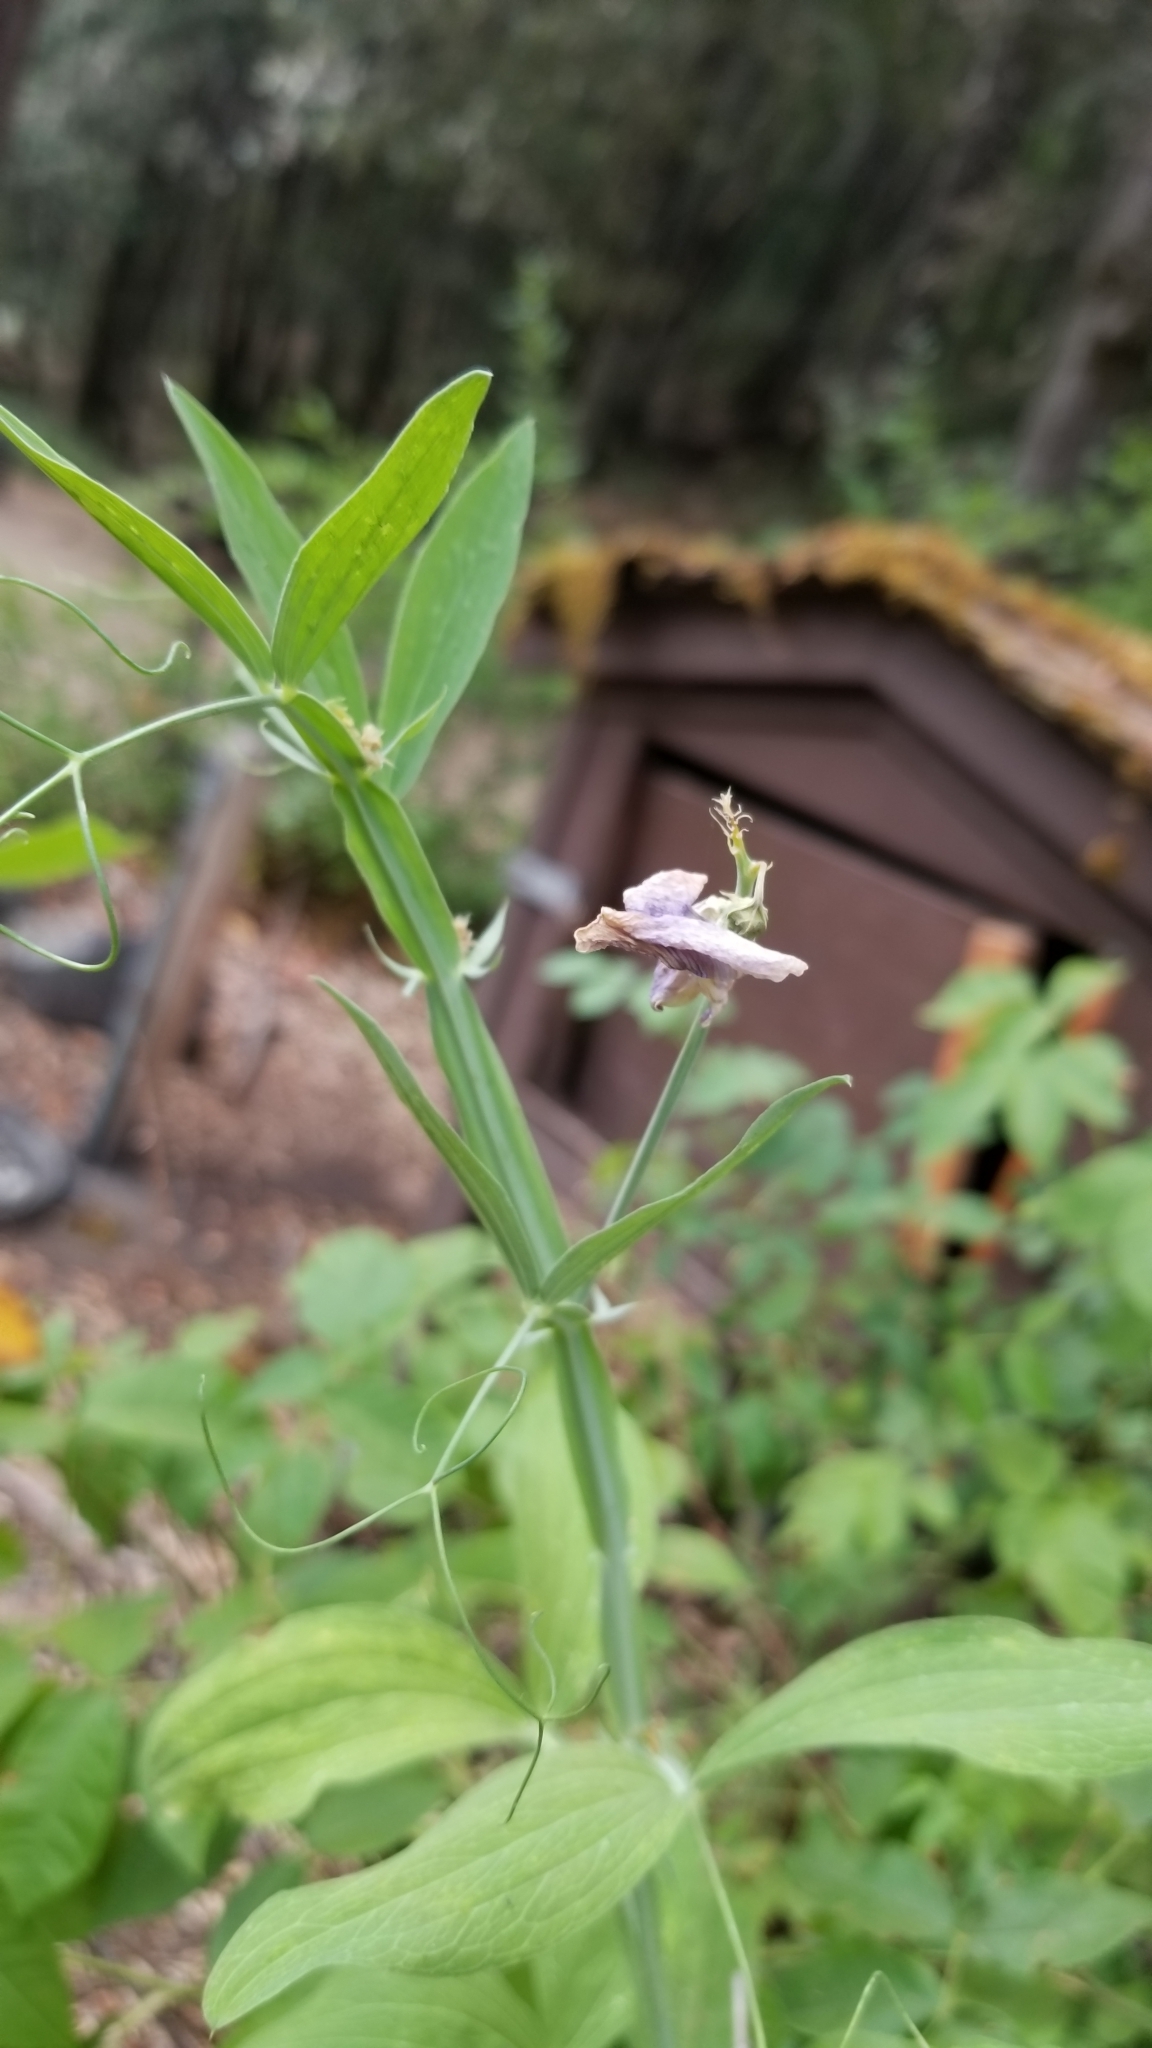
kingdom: Plantae
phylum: Tracheophyta
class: Magnoliopsida
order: Fabales
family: Fabaceae
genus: Lathyrus
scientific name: Lathyrus latifolius
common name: Perennial pea
